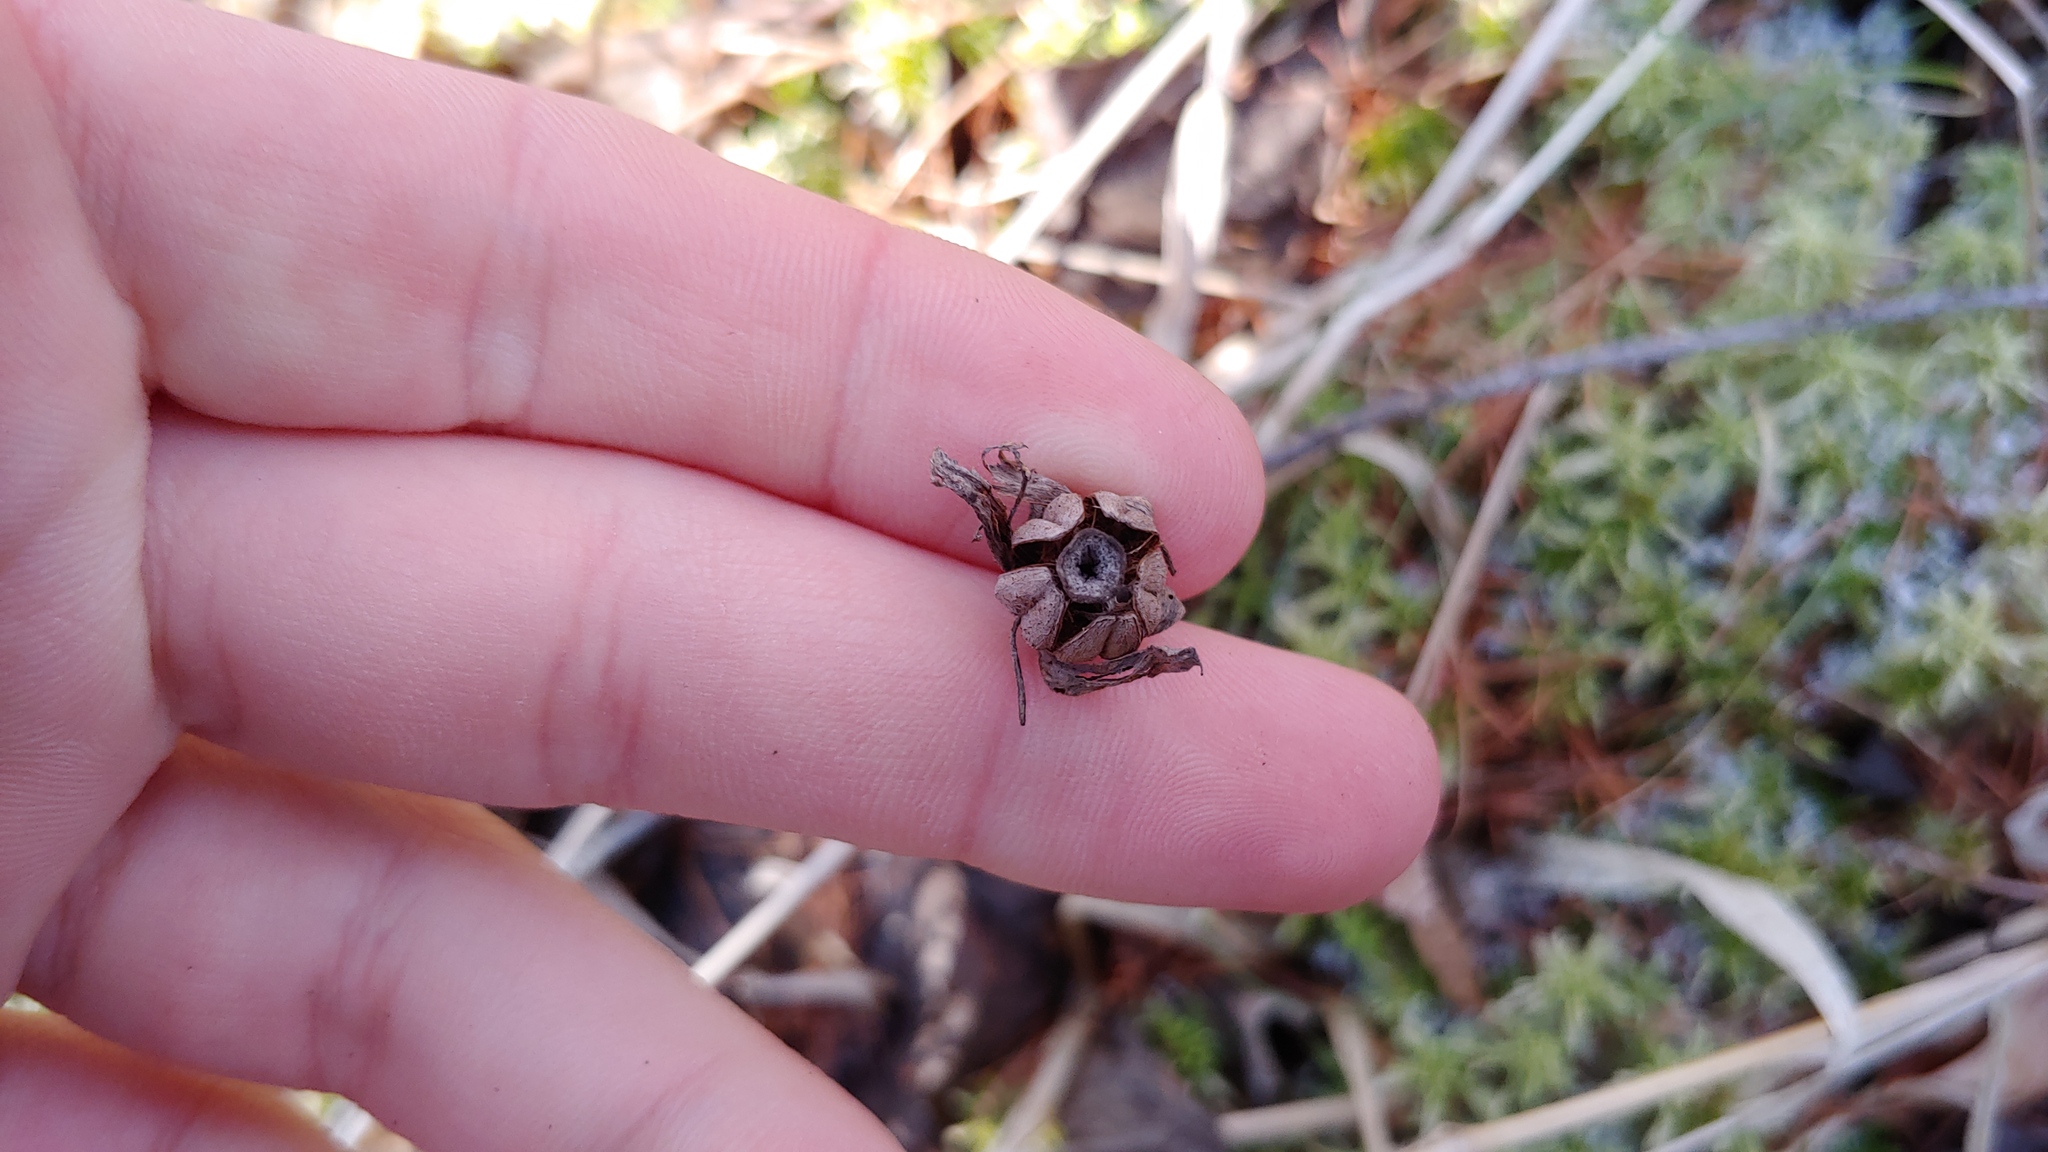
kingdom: Plantae
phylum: Tracheophyta
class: Magnoliopsida
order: Ericales
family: Ericaceae
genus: Monotropa
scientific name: Monotropa uniflora
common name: Convulsion root
